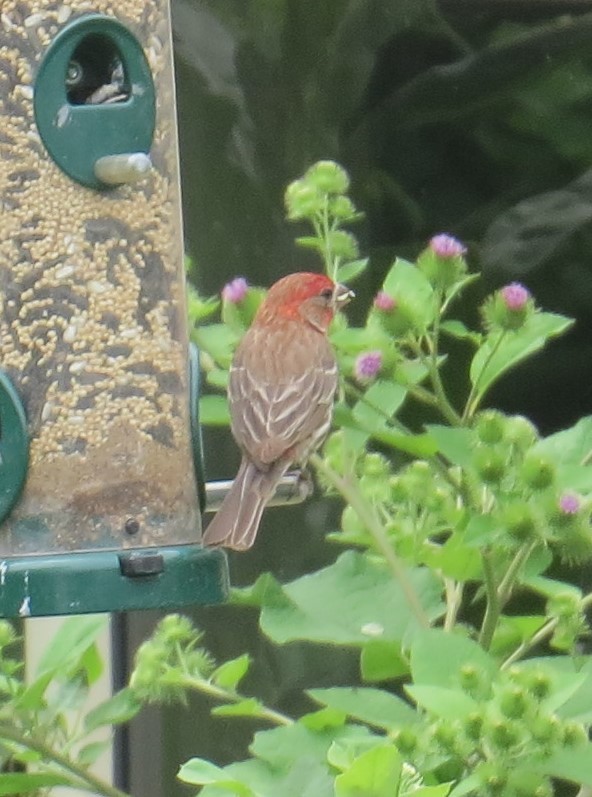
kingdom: Animalia
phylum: Chordata
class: Aves
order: Passeriformes
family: Fringillidae
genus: Haemorhous
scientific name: Haemorhous mexicanus
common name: House finch
